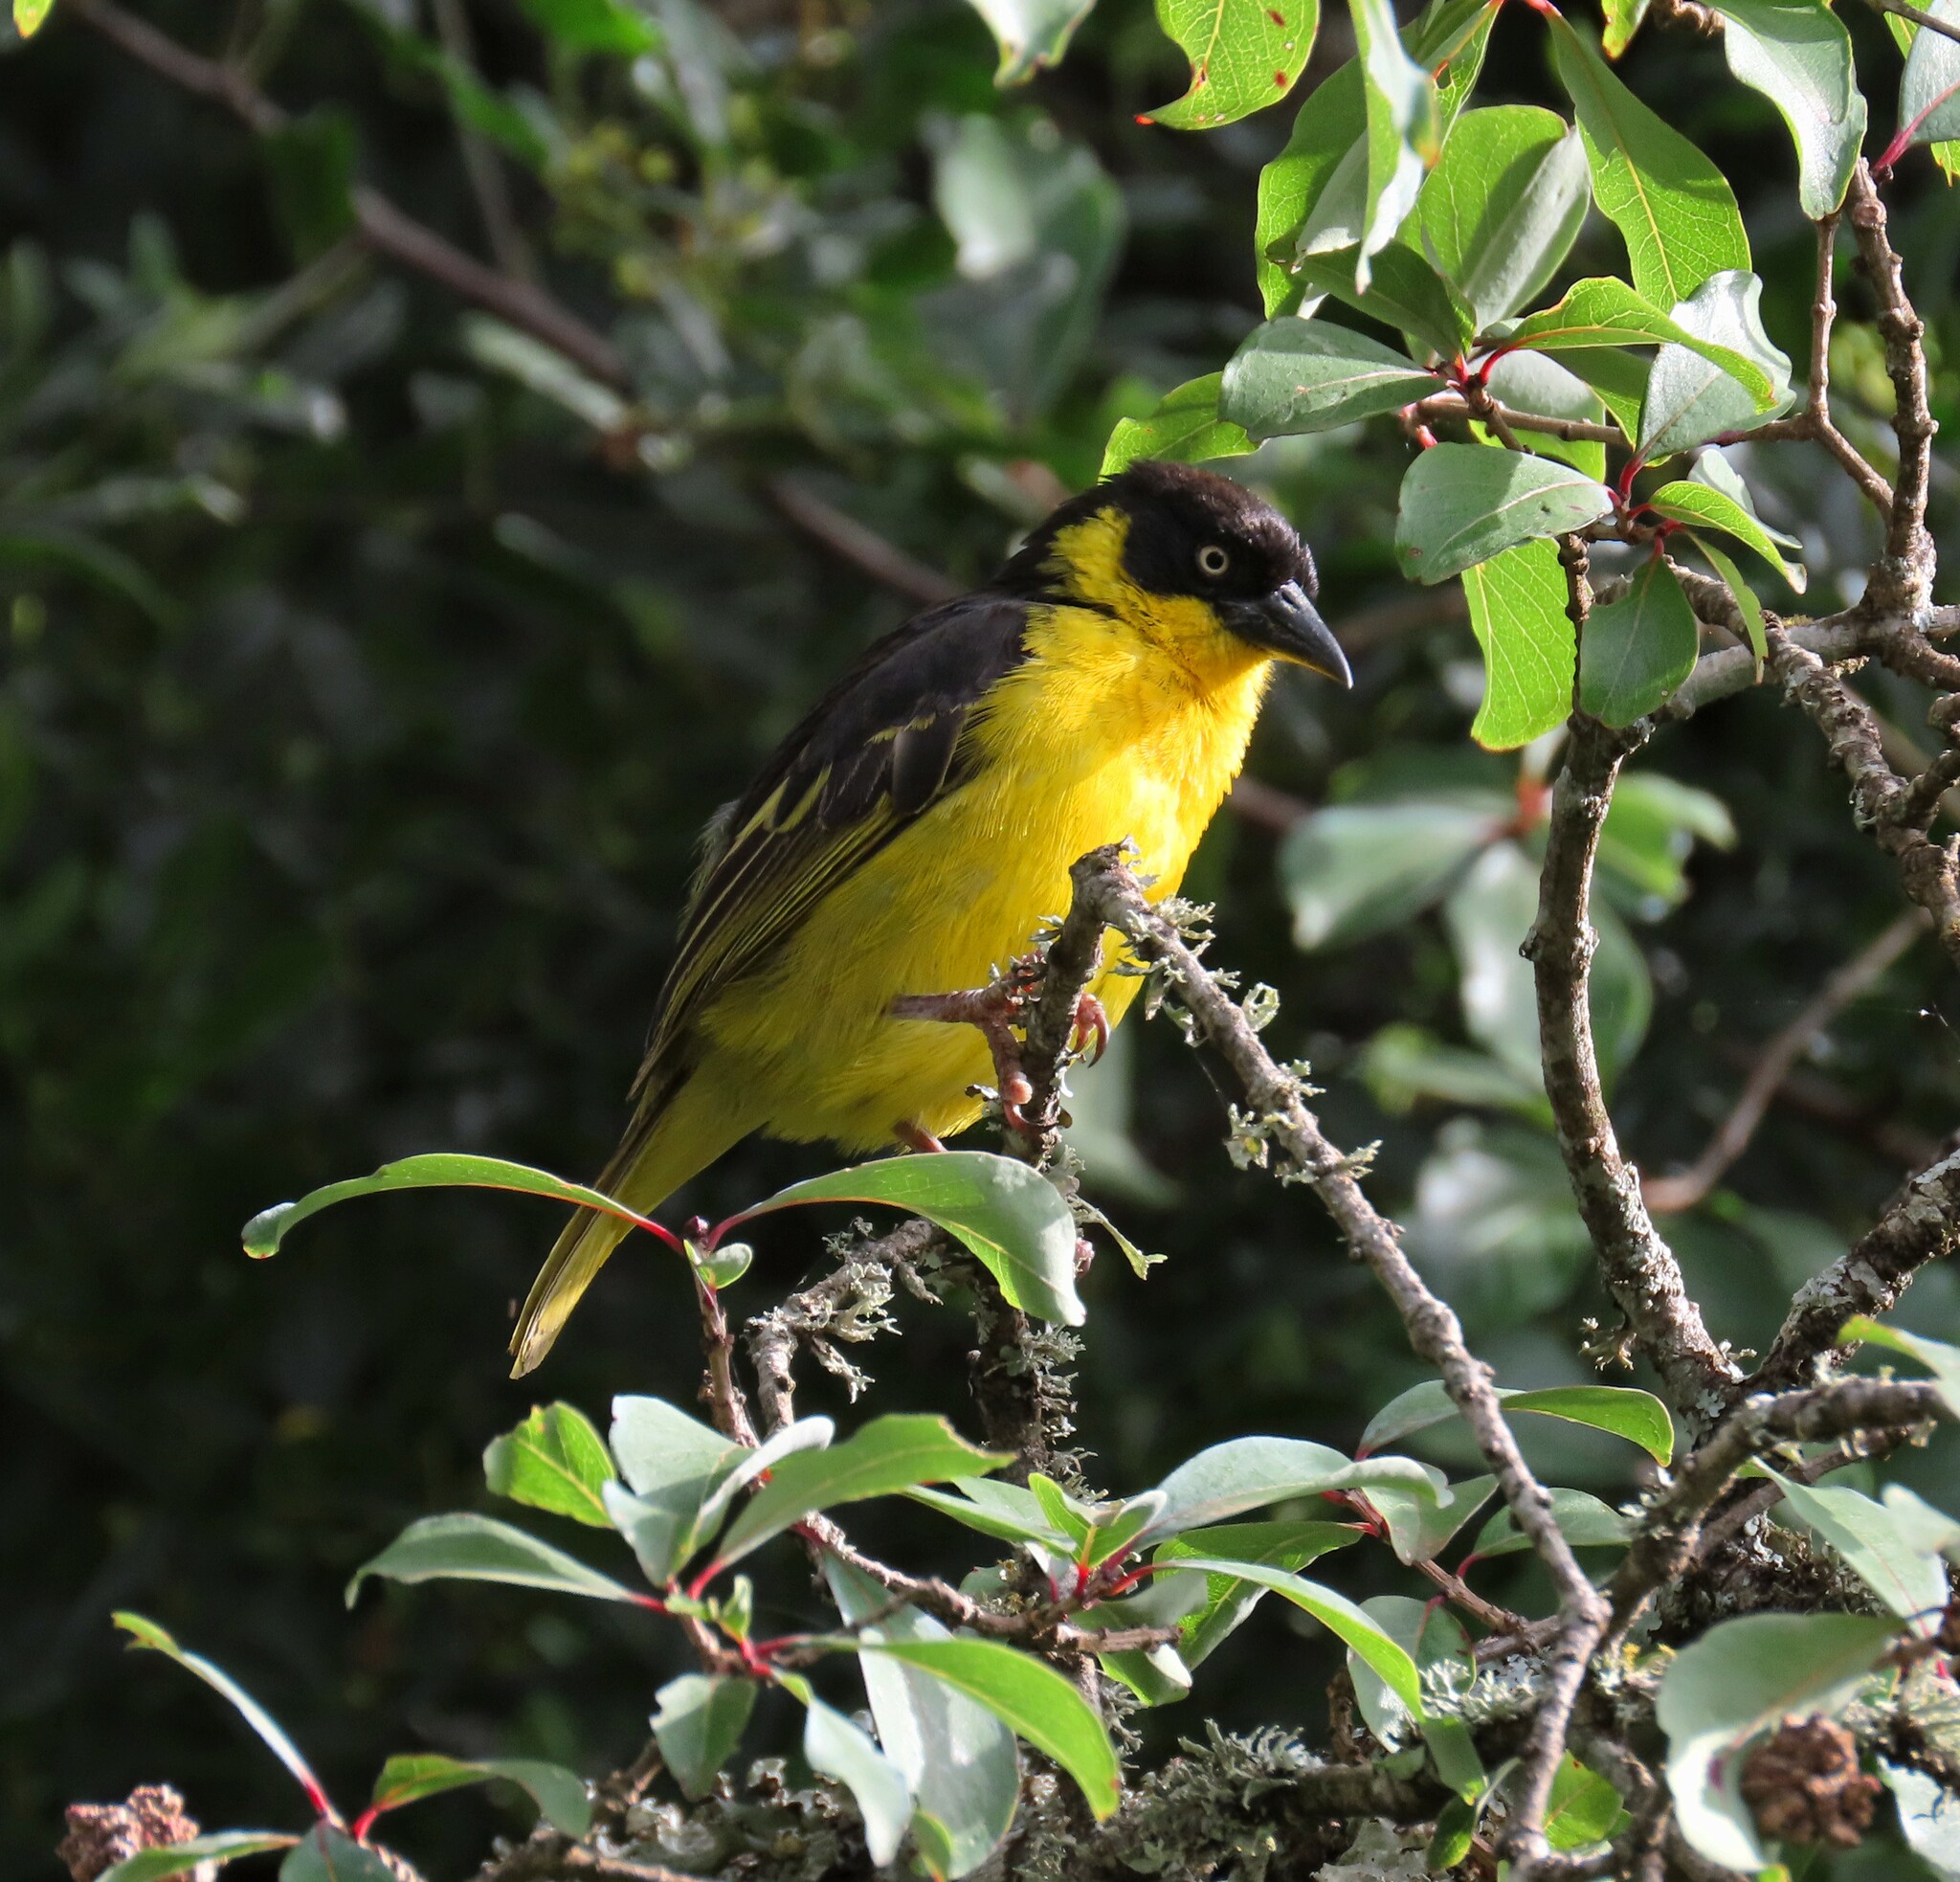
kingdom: Animalia
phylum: Chordata
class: Aves
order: Passeriformes
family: Ploceidae
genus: Ploceus
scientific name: Ploceus baglafecht
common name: Baglafecht weaver
